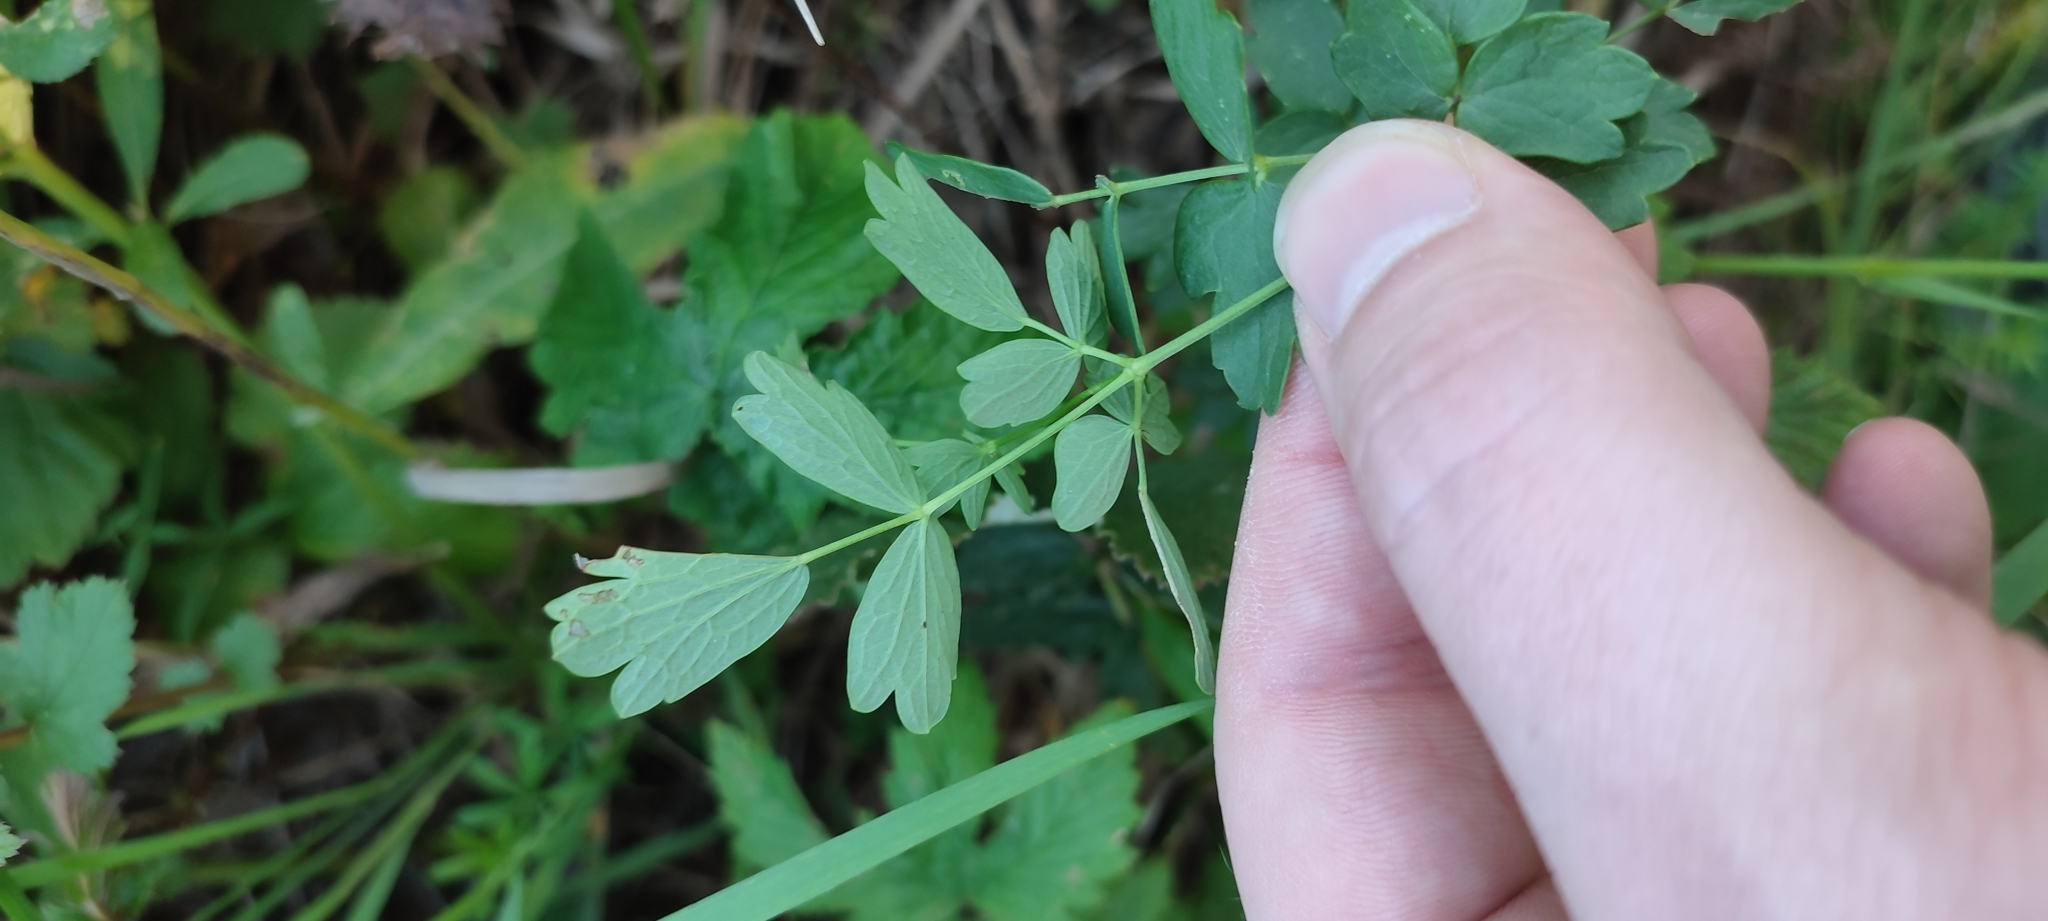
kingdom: Plantae
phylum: Tracheophyta
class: Magnoliopsida
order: Ranunculales
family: Ranunculaceae
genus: Thalictrum
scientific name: Thalictrum minus
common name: Lesser meadow-rue
